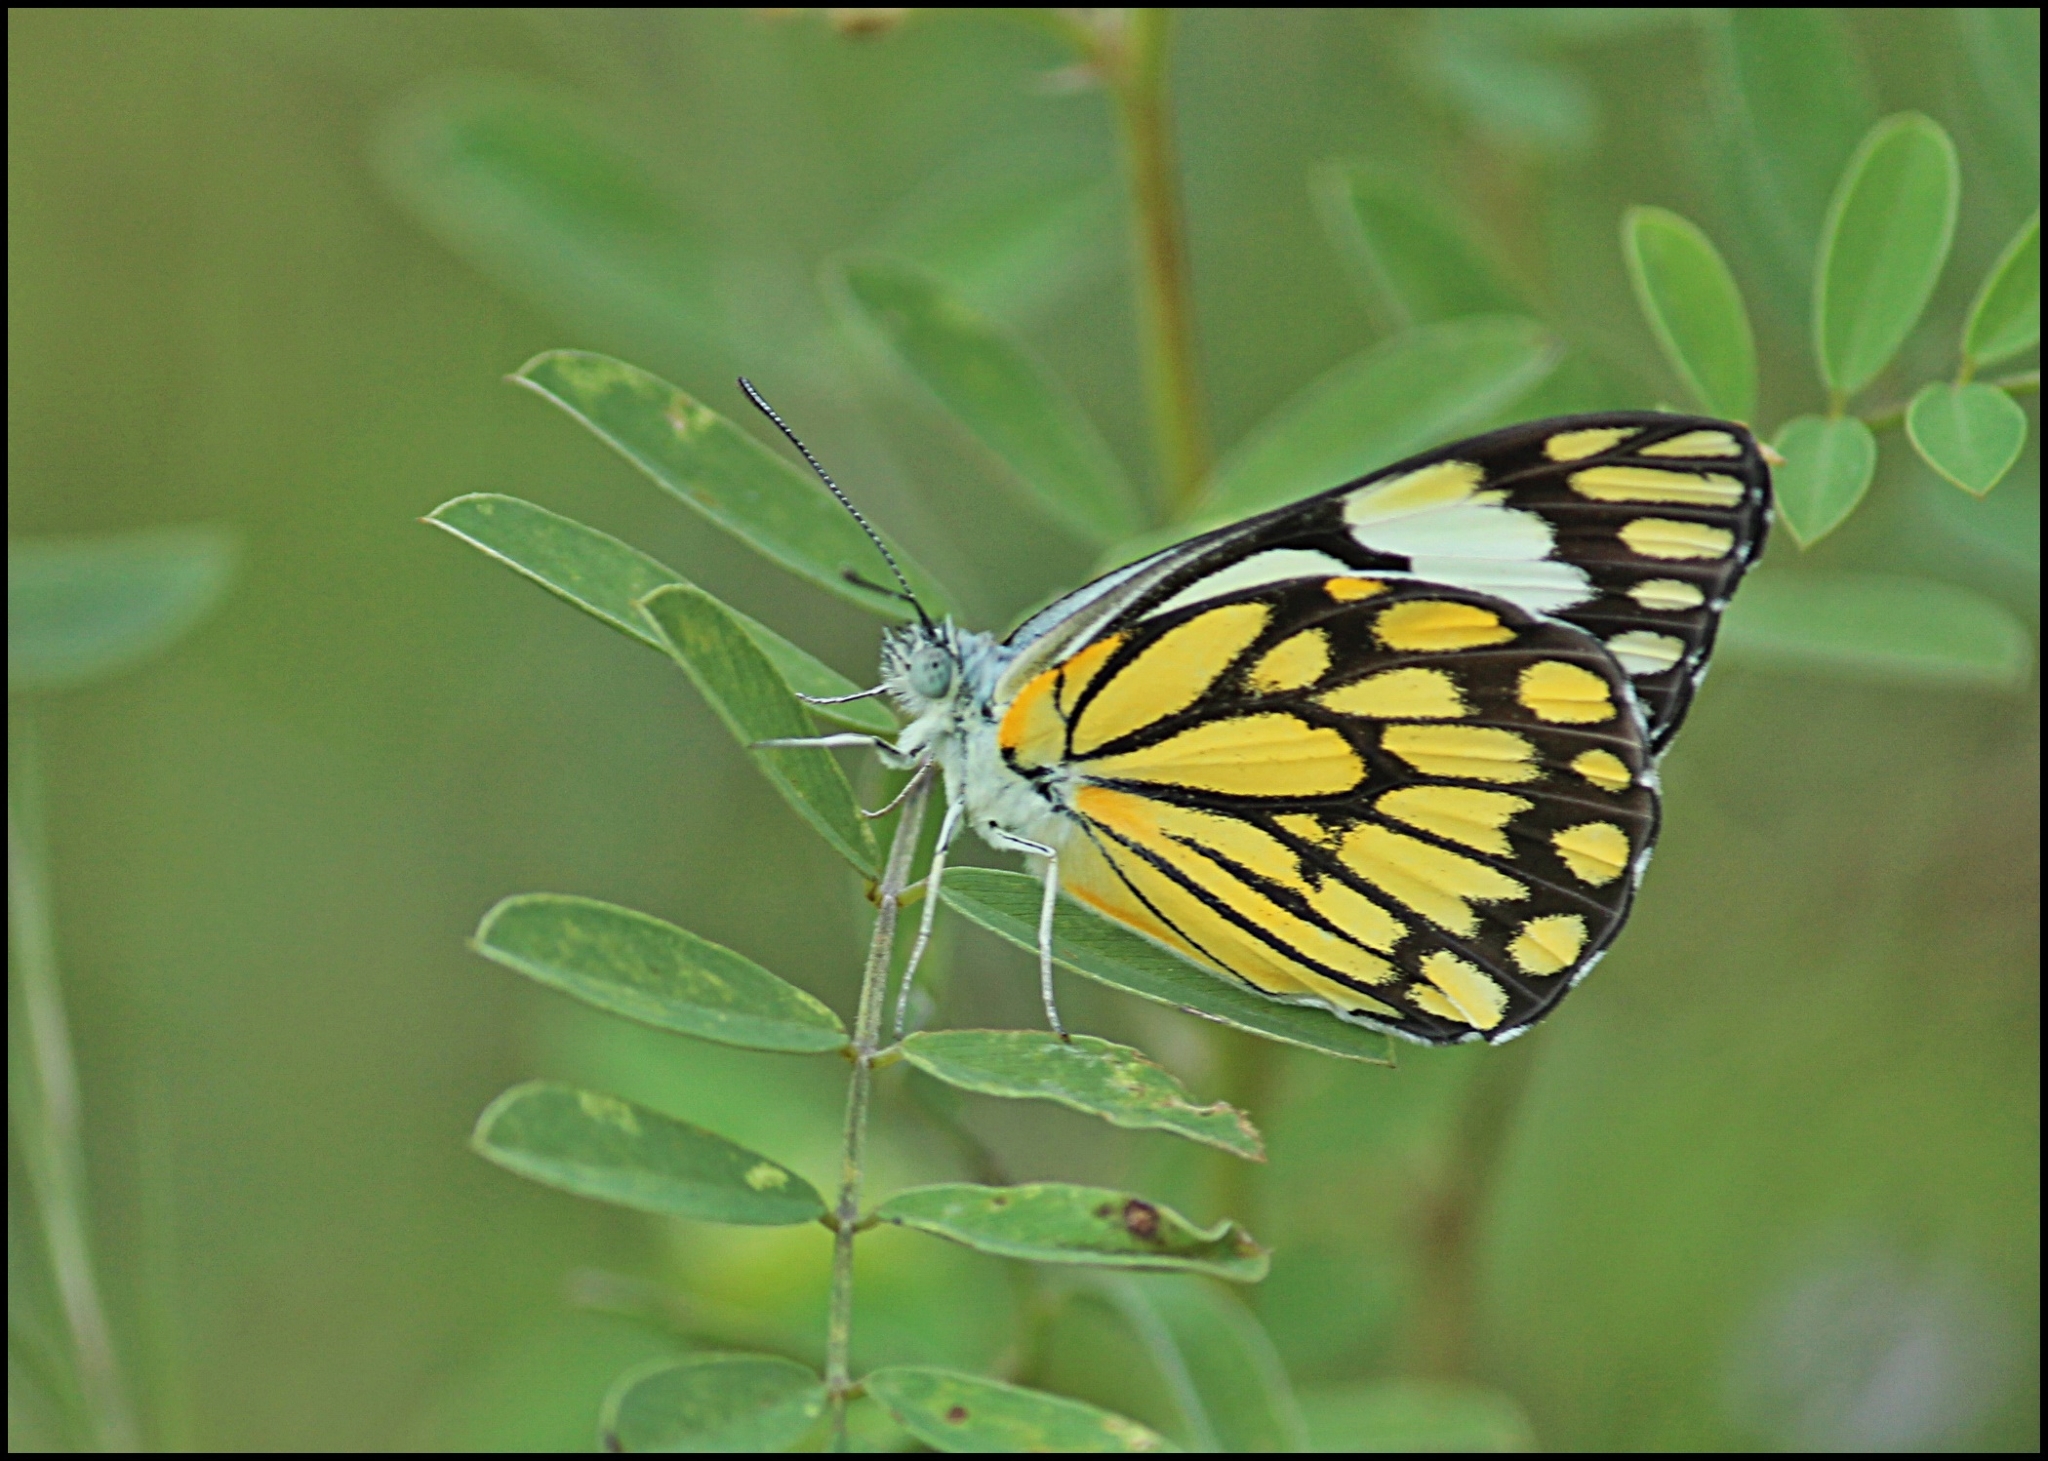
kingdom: Animalia
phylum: Arthropoda
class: Insecta
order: Lepidoptera
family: Pieridae
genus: Belenois
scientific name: Belenois aurota
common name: Brown-veined white
